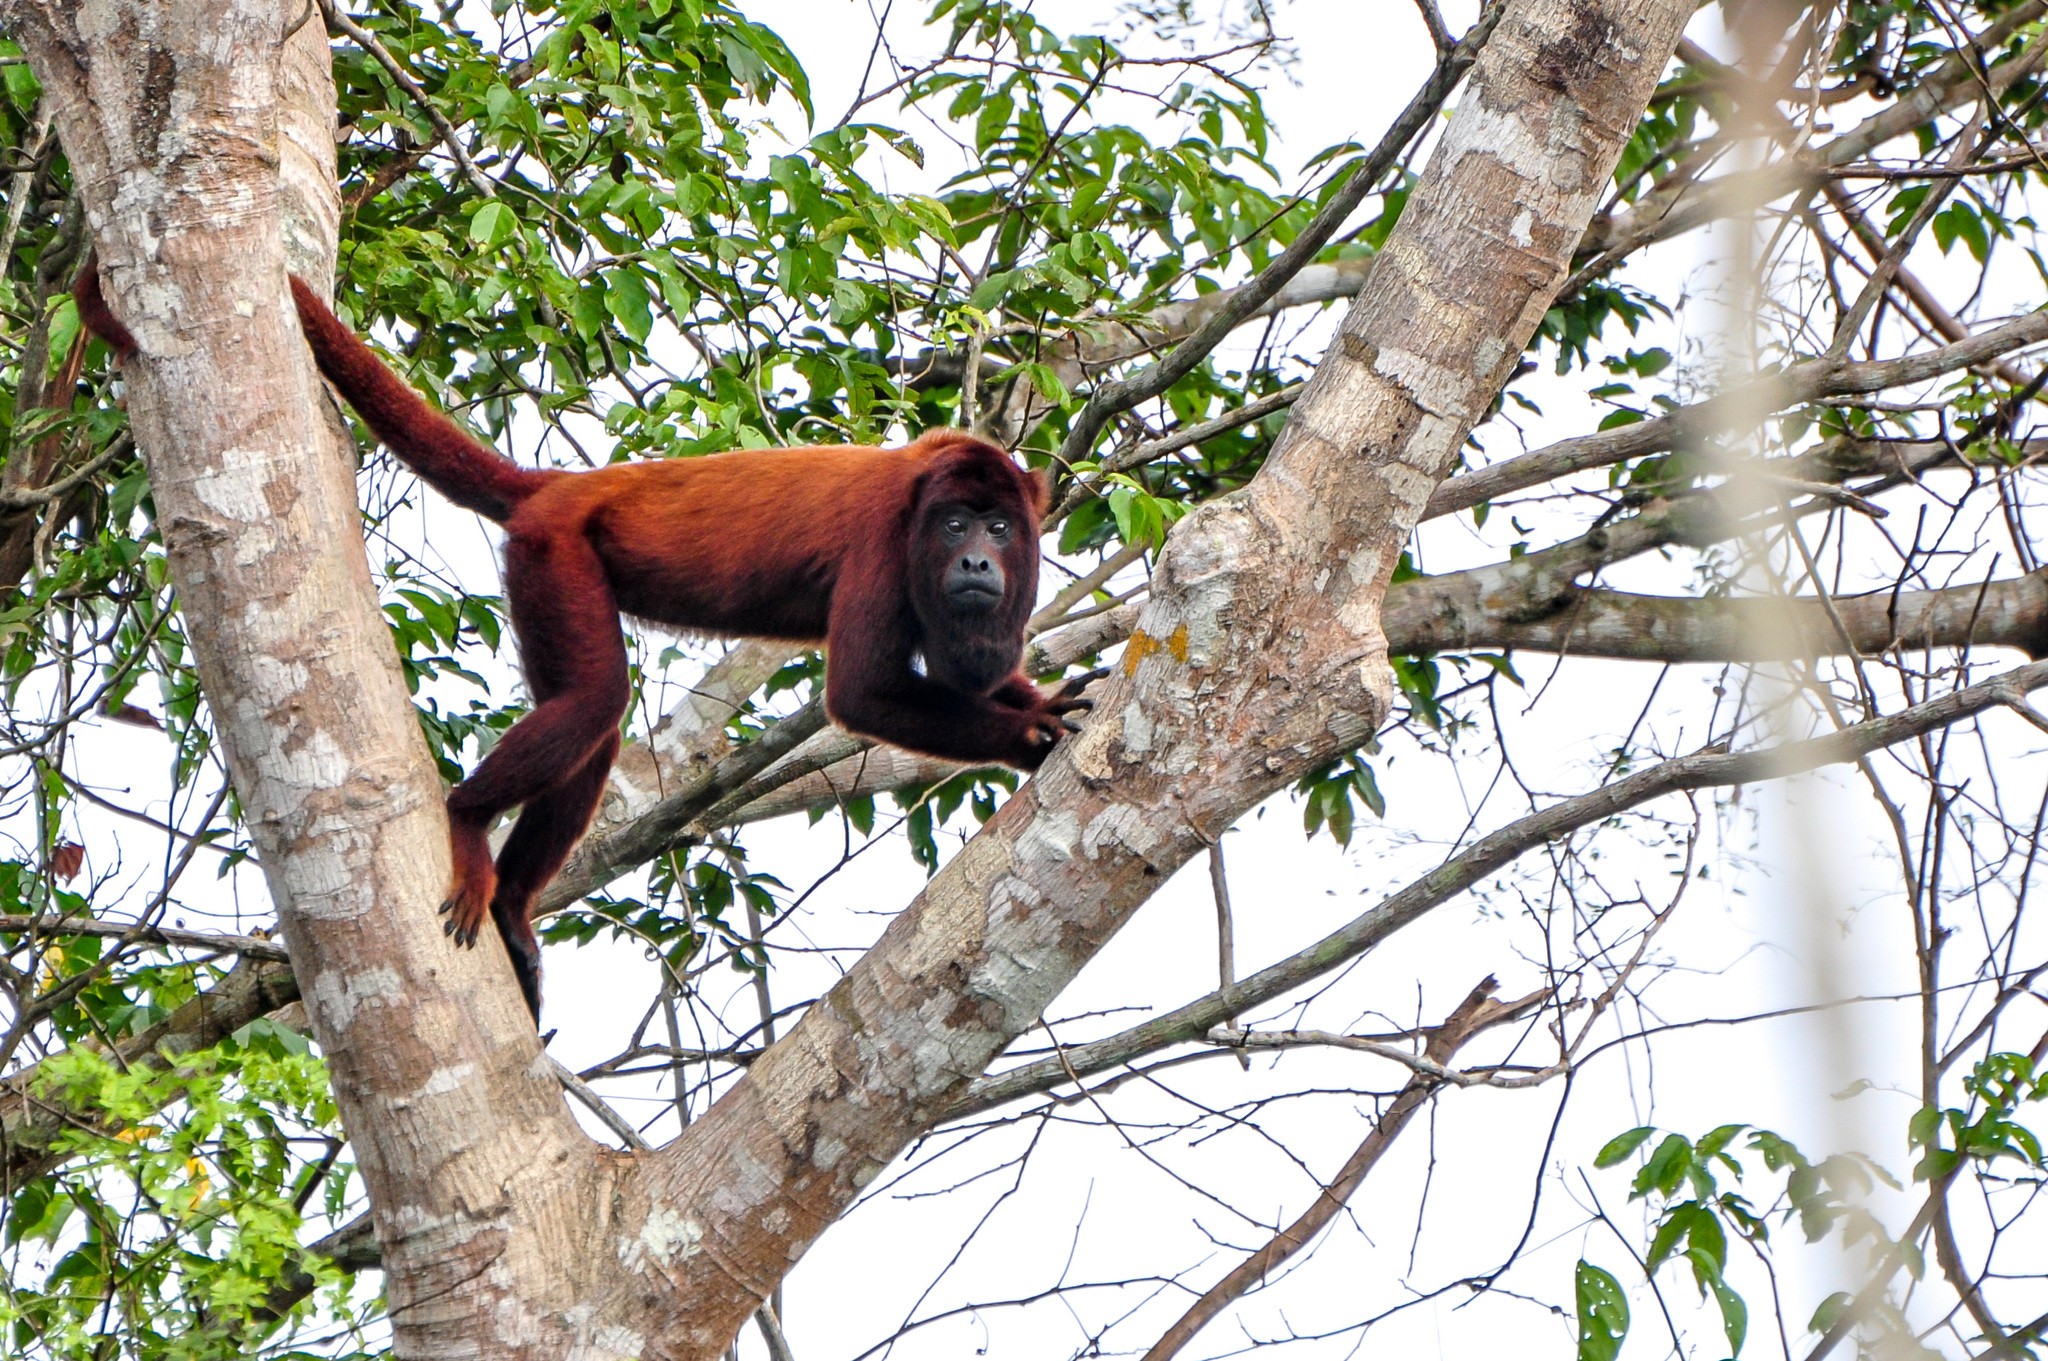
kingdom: Animalia
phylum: Chordata
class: Mammalia
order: Primates
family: Atelidae
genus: Alouatta
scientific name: Alouatta seniculus
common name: Venezuelan red howler
